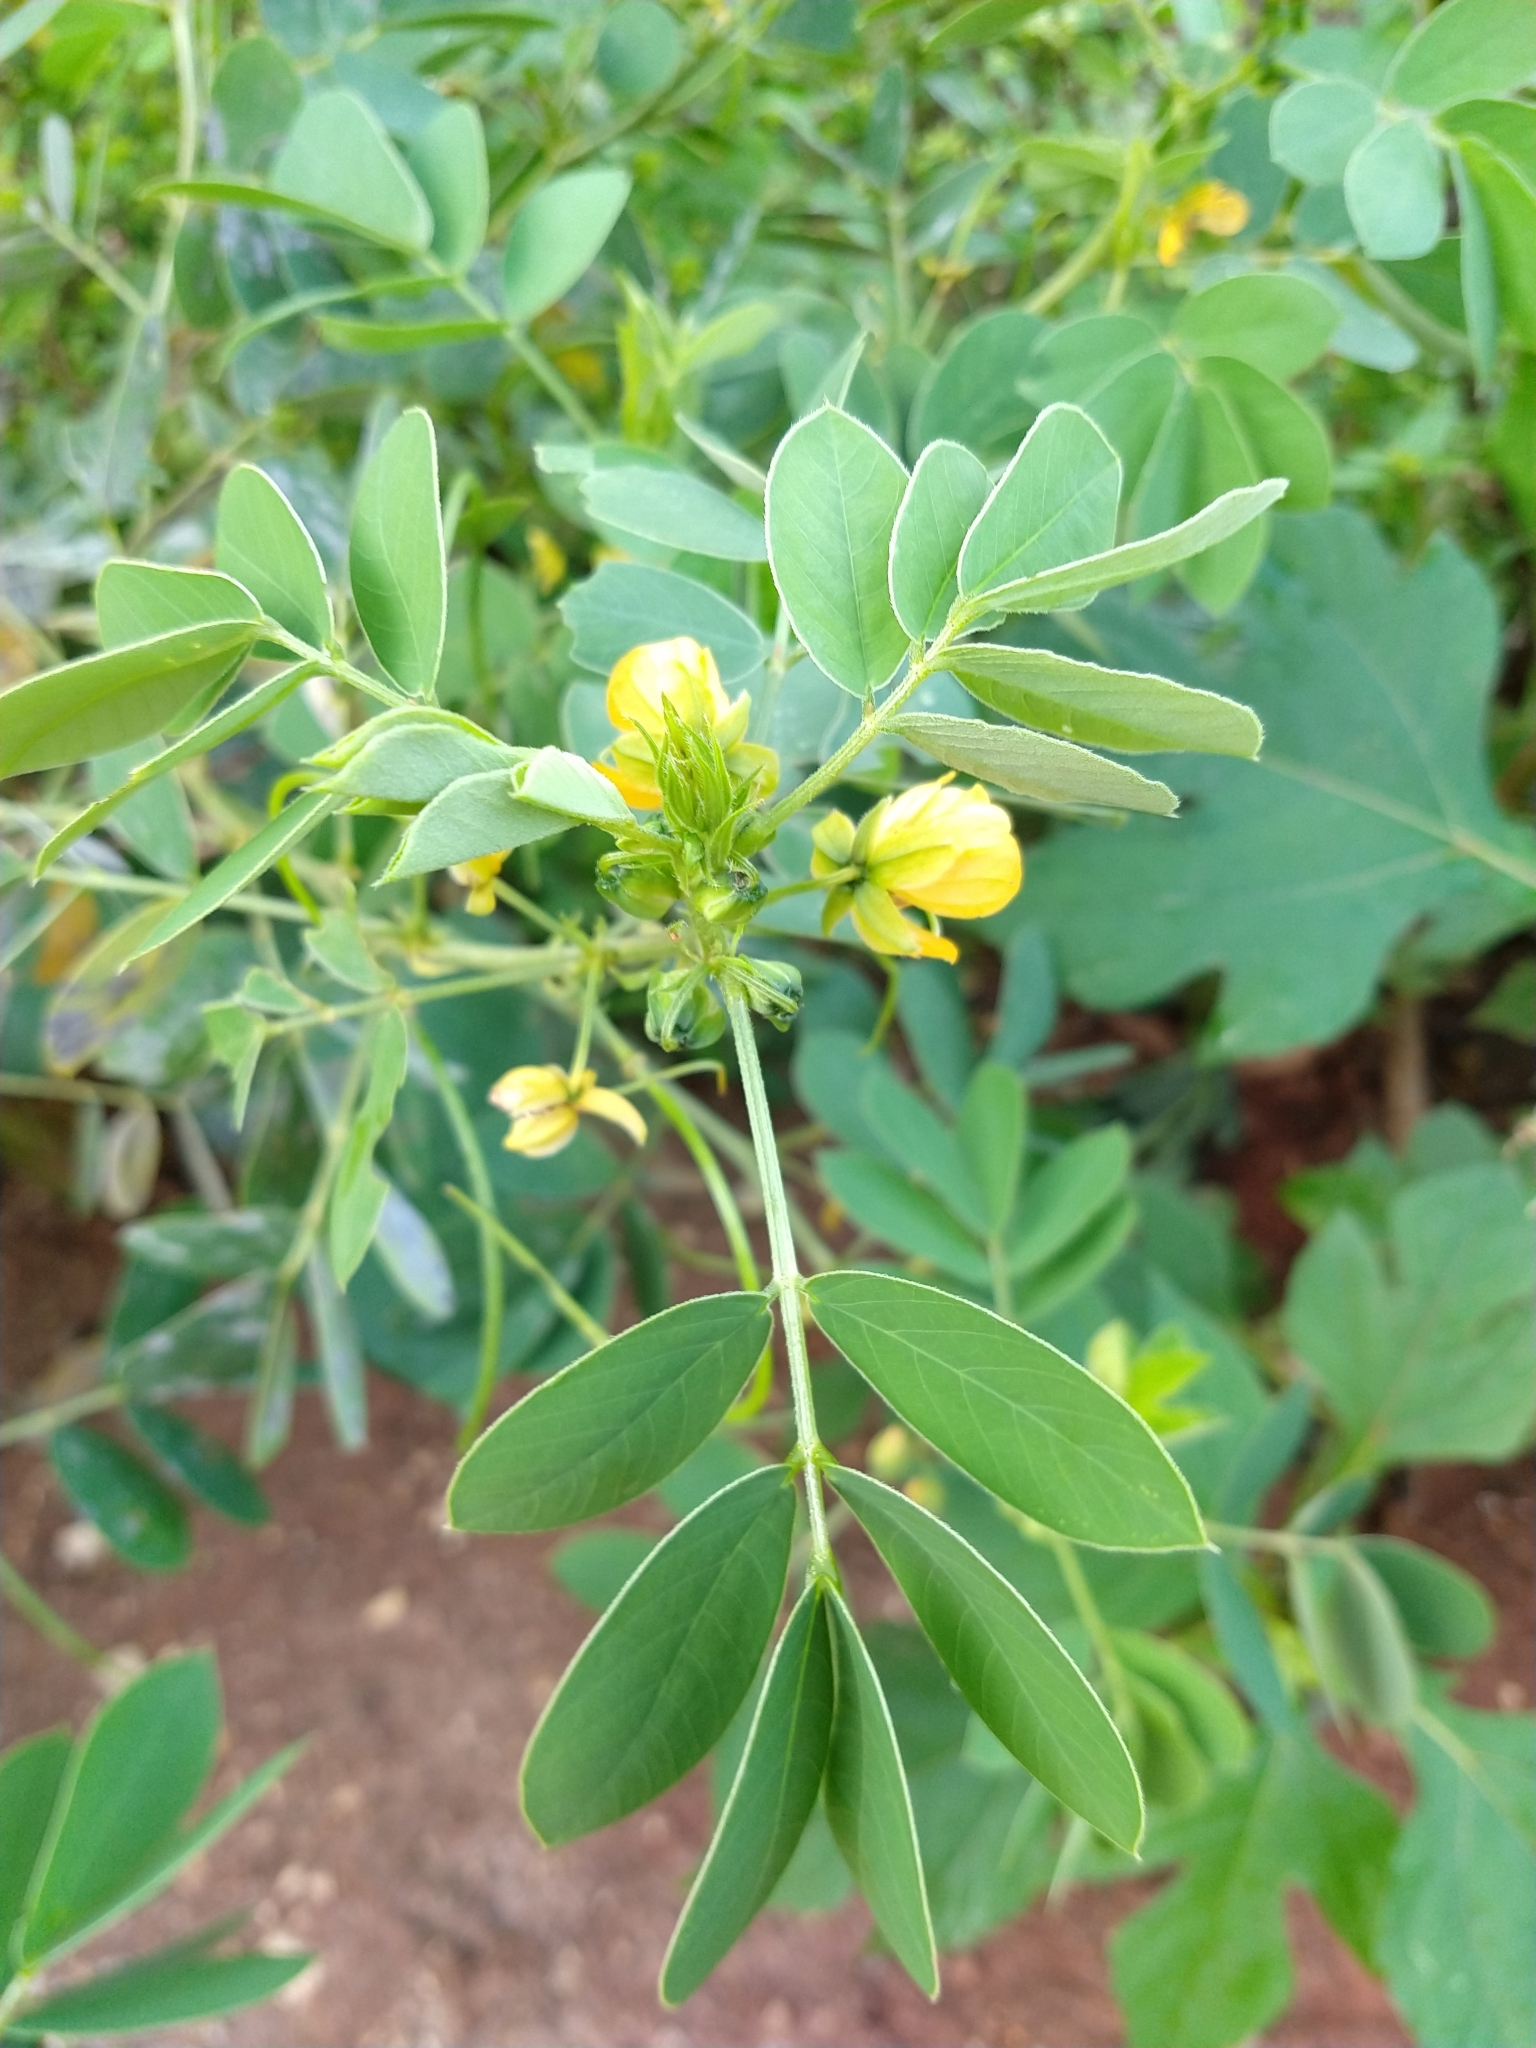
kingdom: Plantae
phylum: Tracheophyta
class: Magnoliopsida
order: Fabales
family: Fabaceae
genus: Senna
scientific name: Senna obtusifolia
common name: Java-bean
